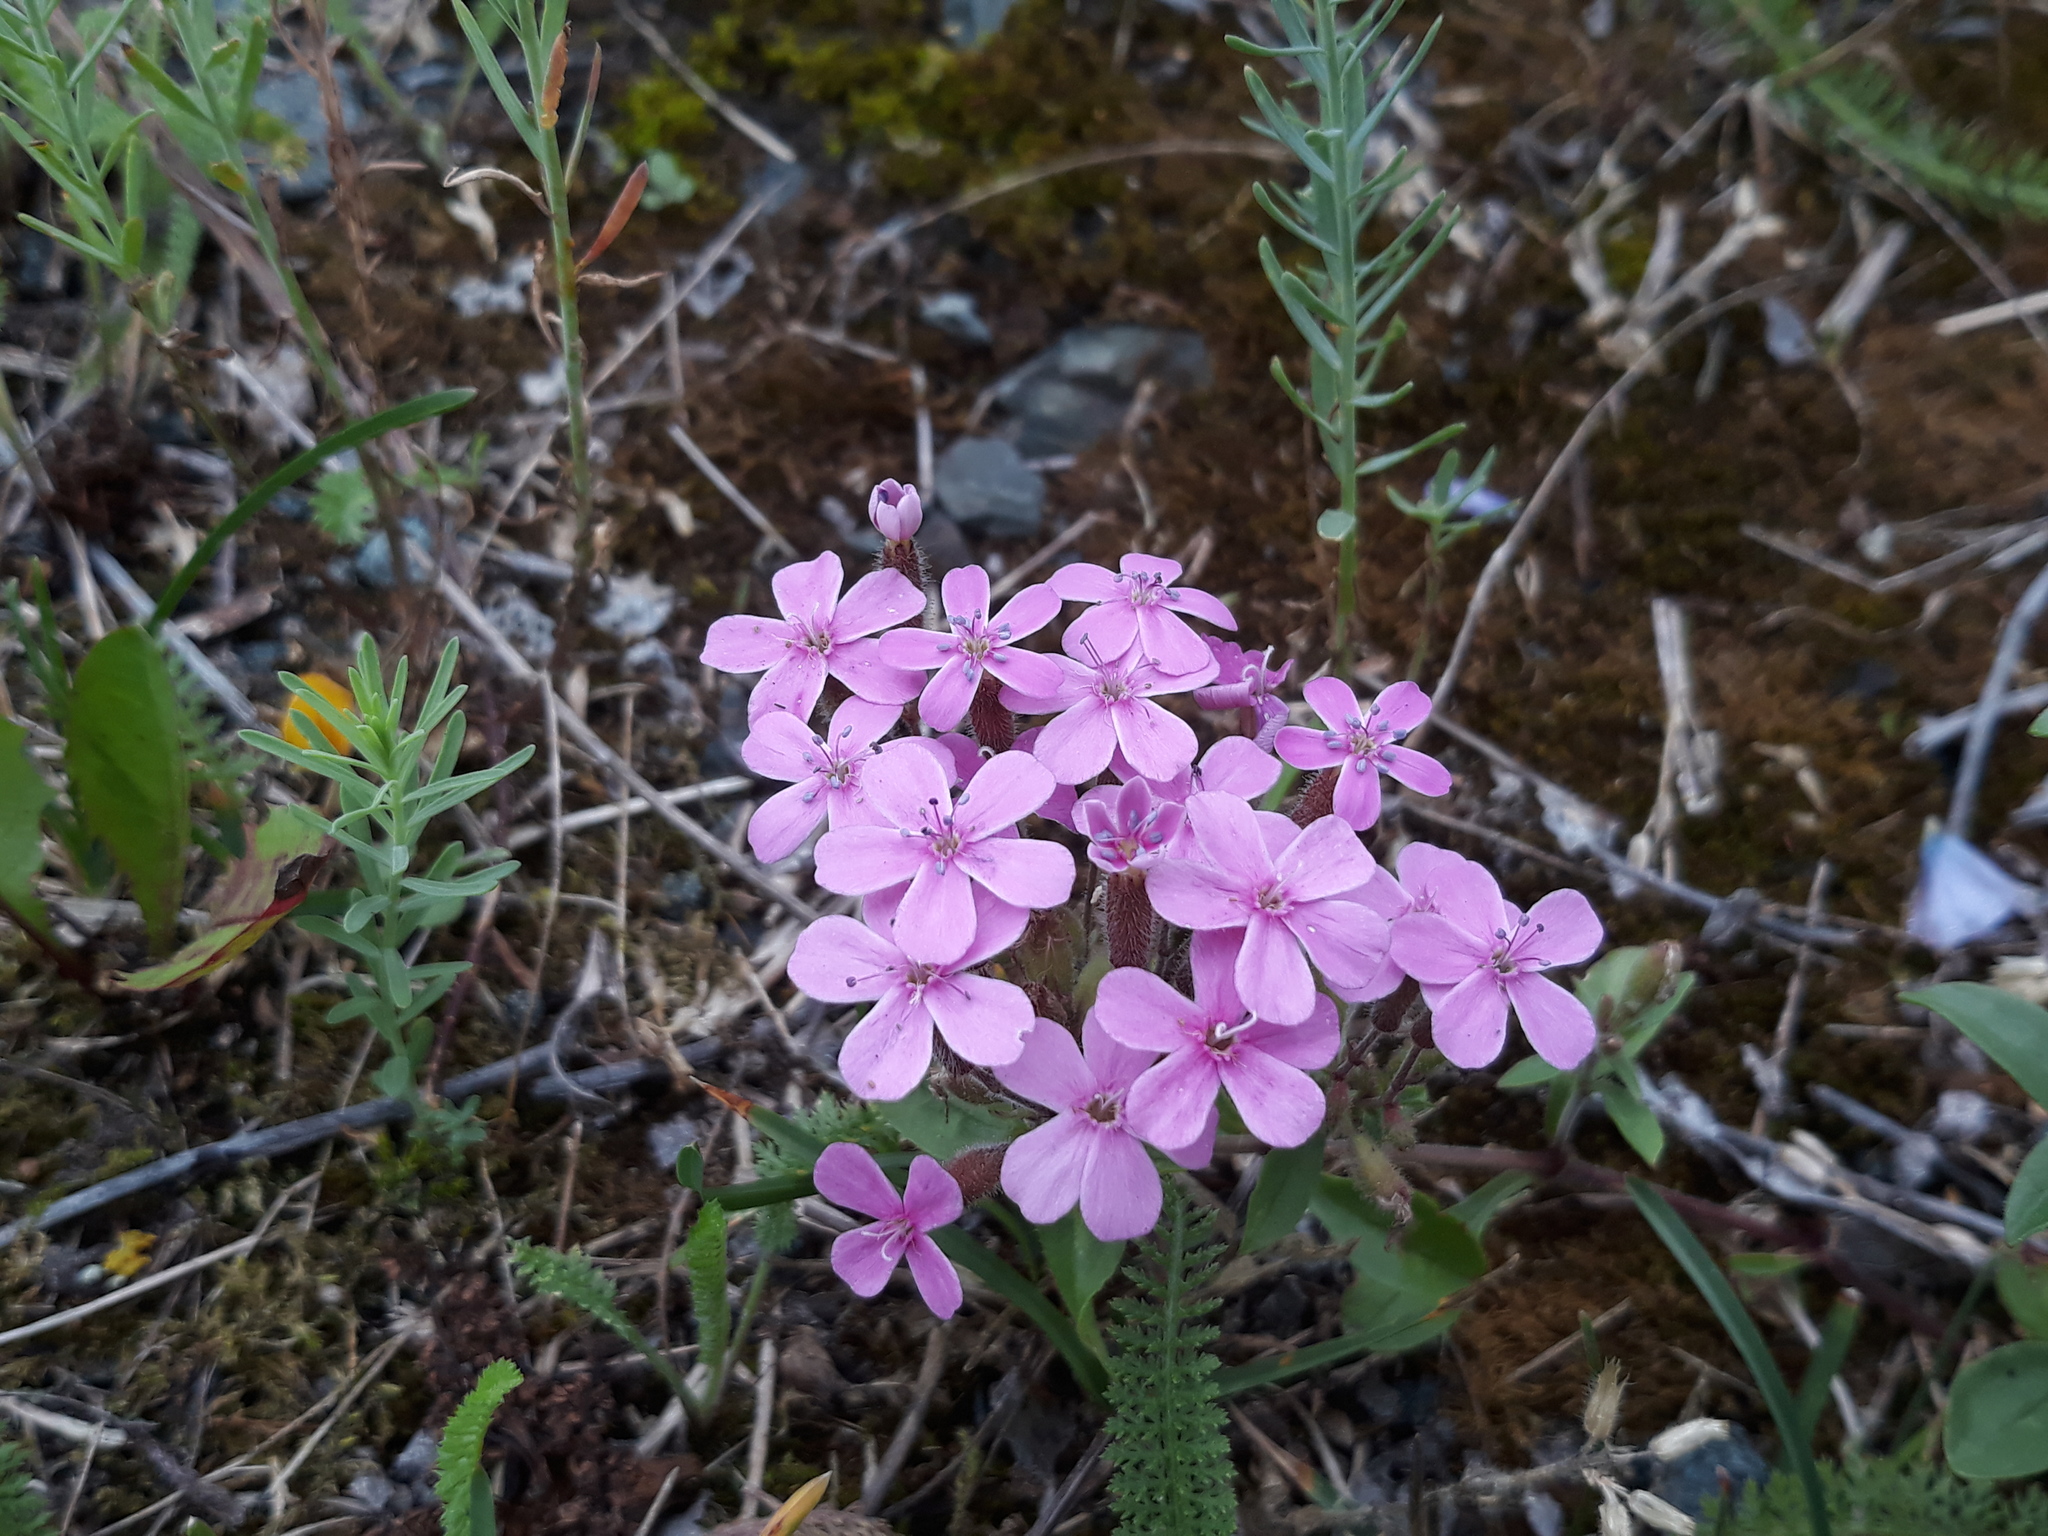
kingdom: Plantae
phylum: Tracheophyta
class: Magnoliopsida
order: Caryophyllales
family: Caryophyllaceae
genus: Saponaria
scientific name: Saponaria ocymoides
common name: Rock soapwort
